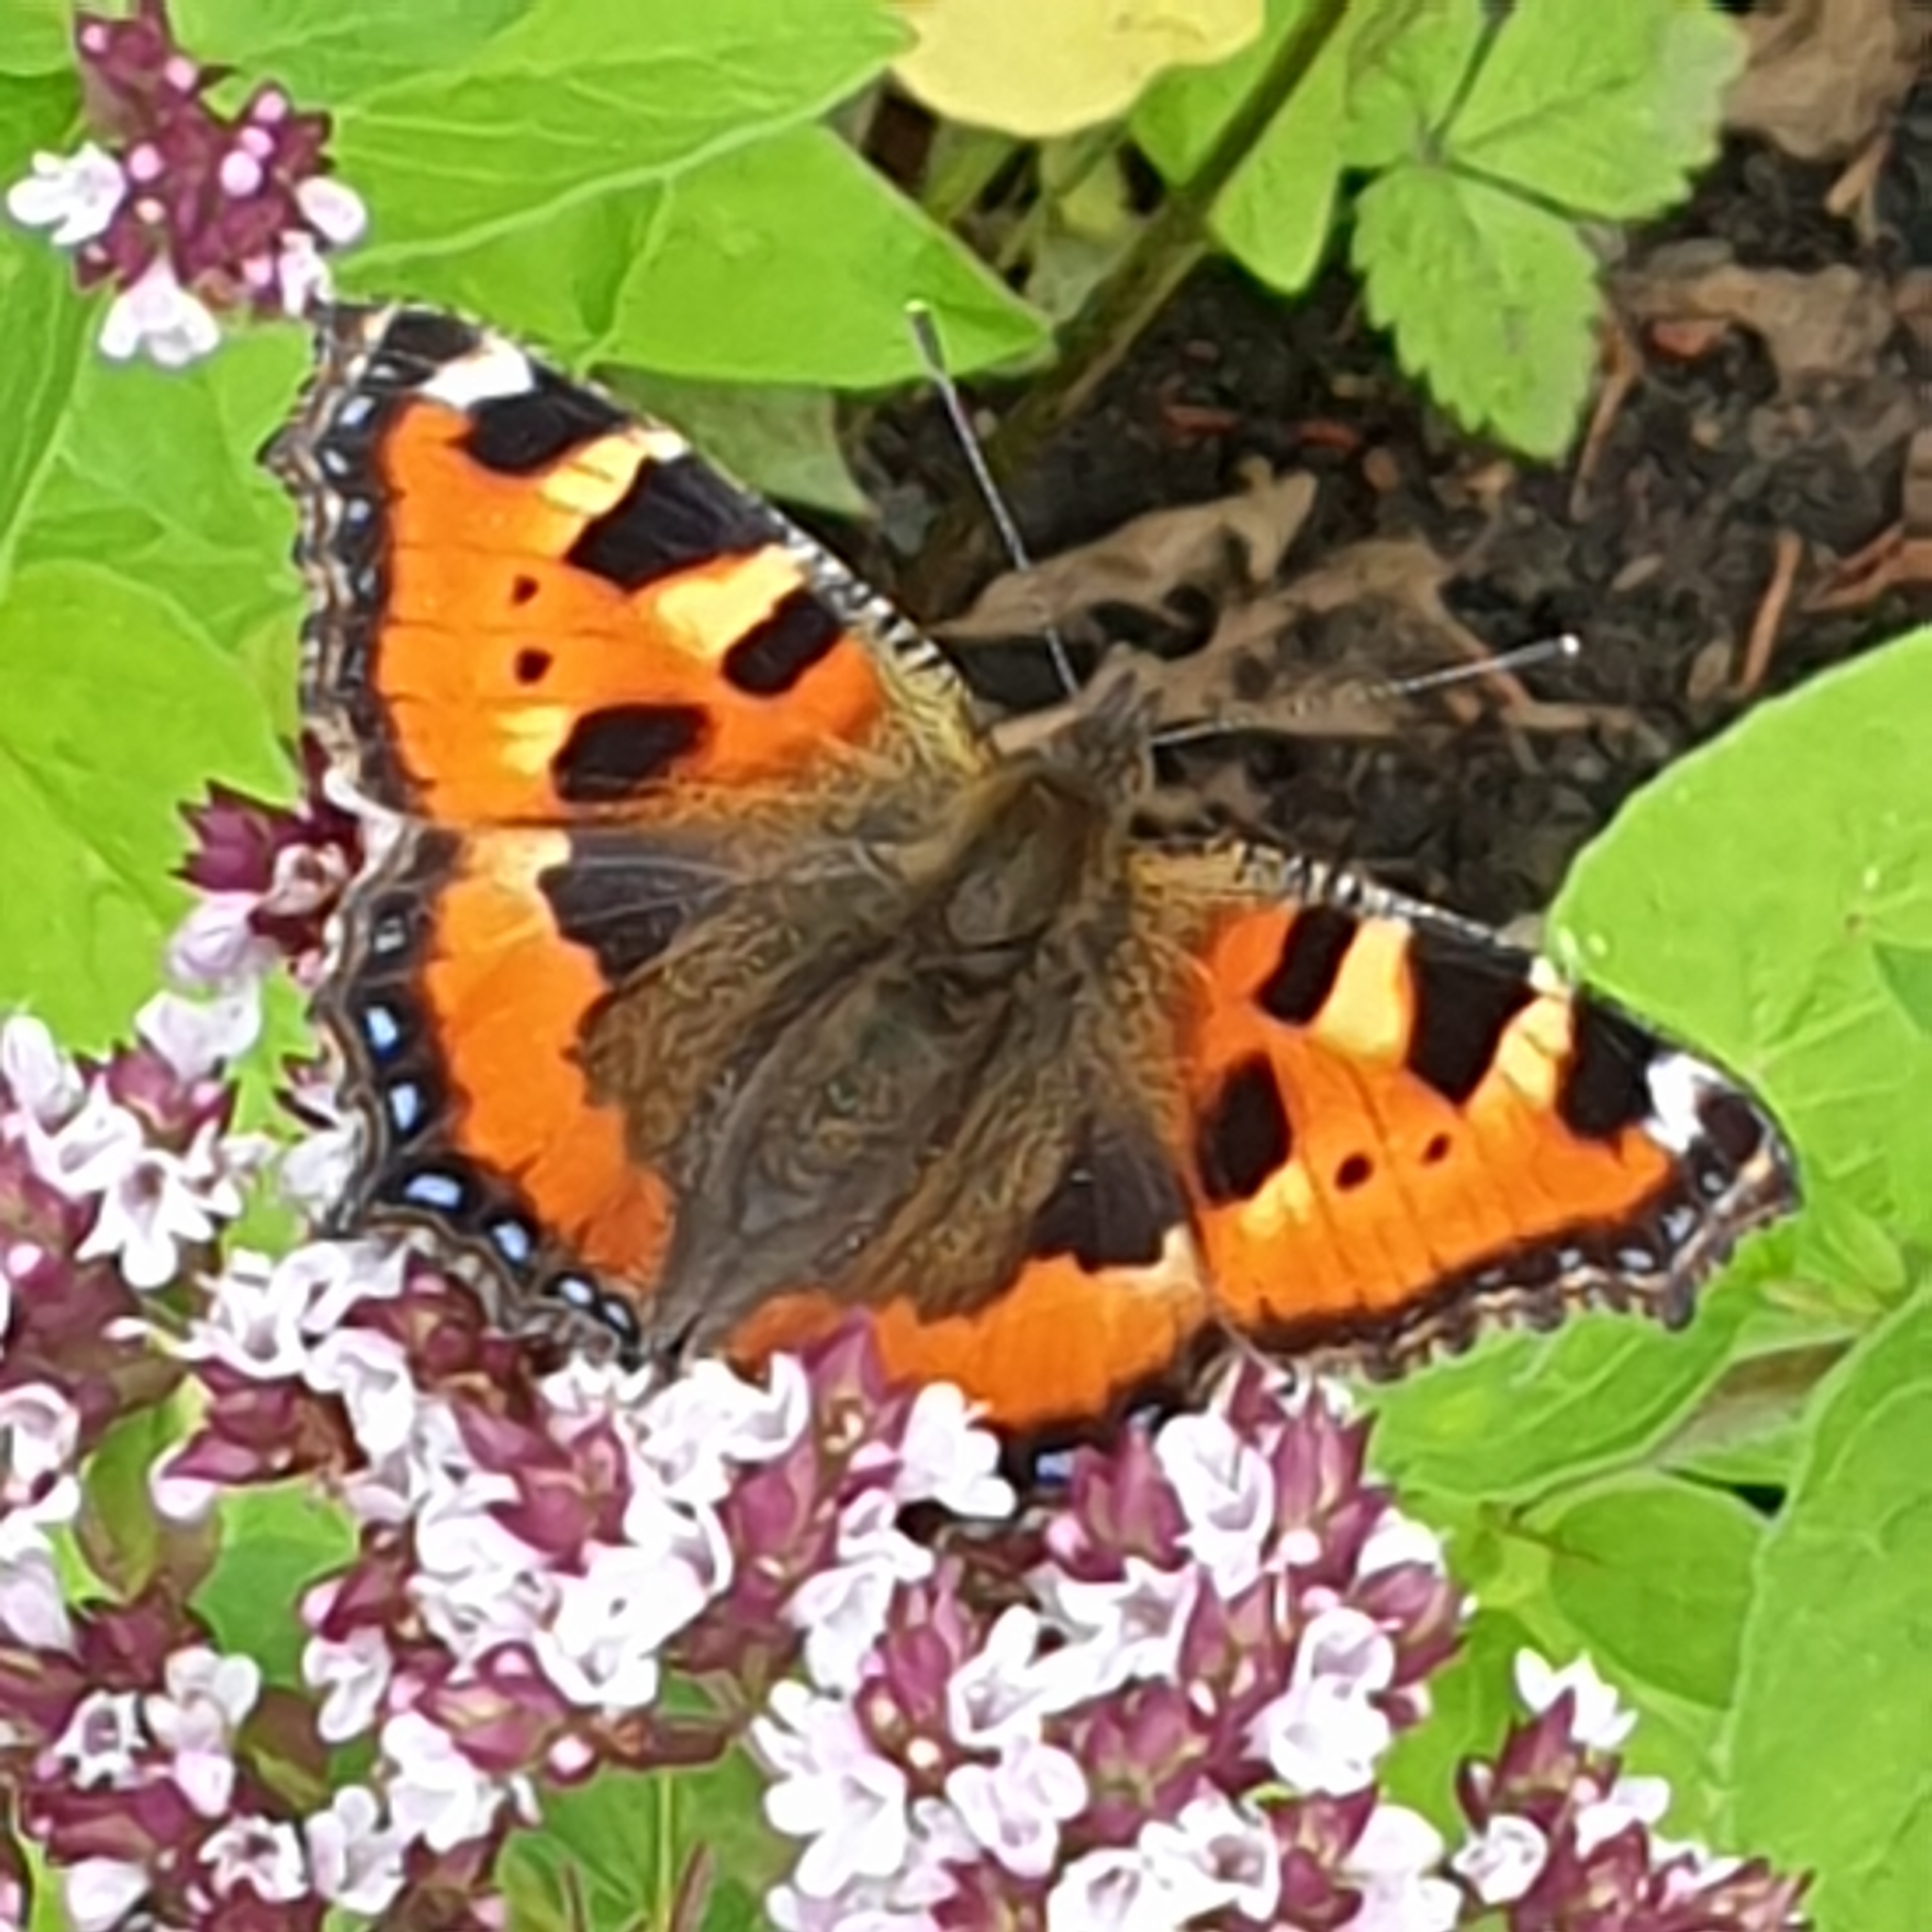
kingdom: Animalia
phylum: Arthropoda
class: Insecta
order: Lepidoptera
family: Nymphalidae
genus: Aglais
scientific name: Aglais urticae
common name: Small tortoiseshell
